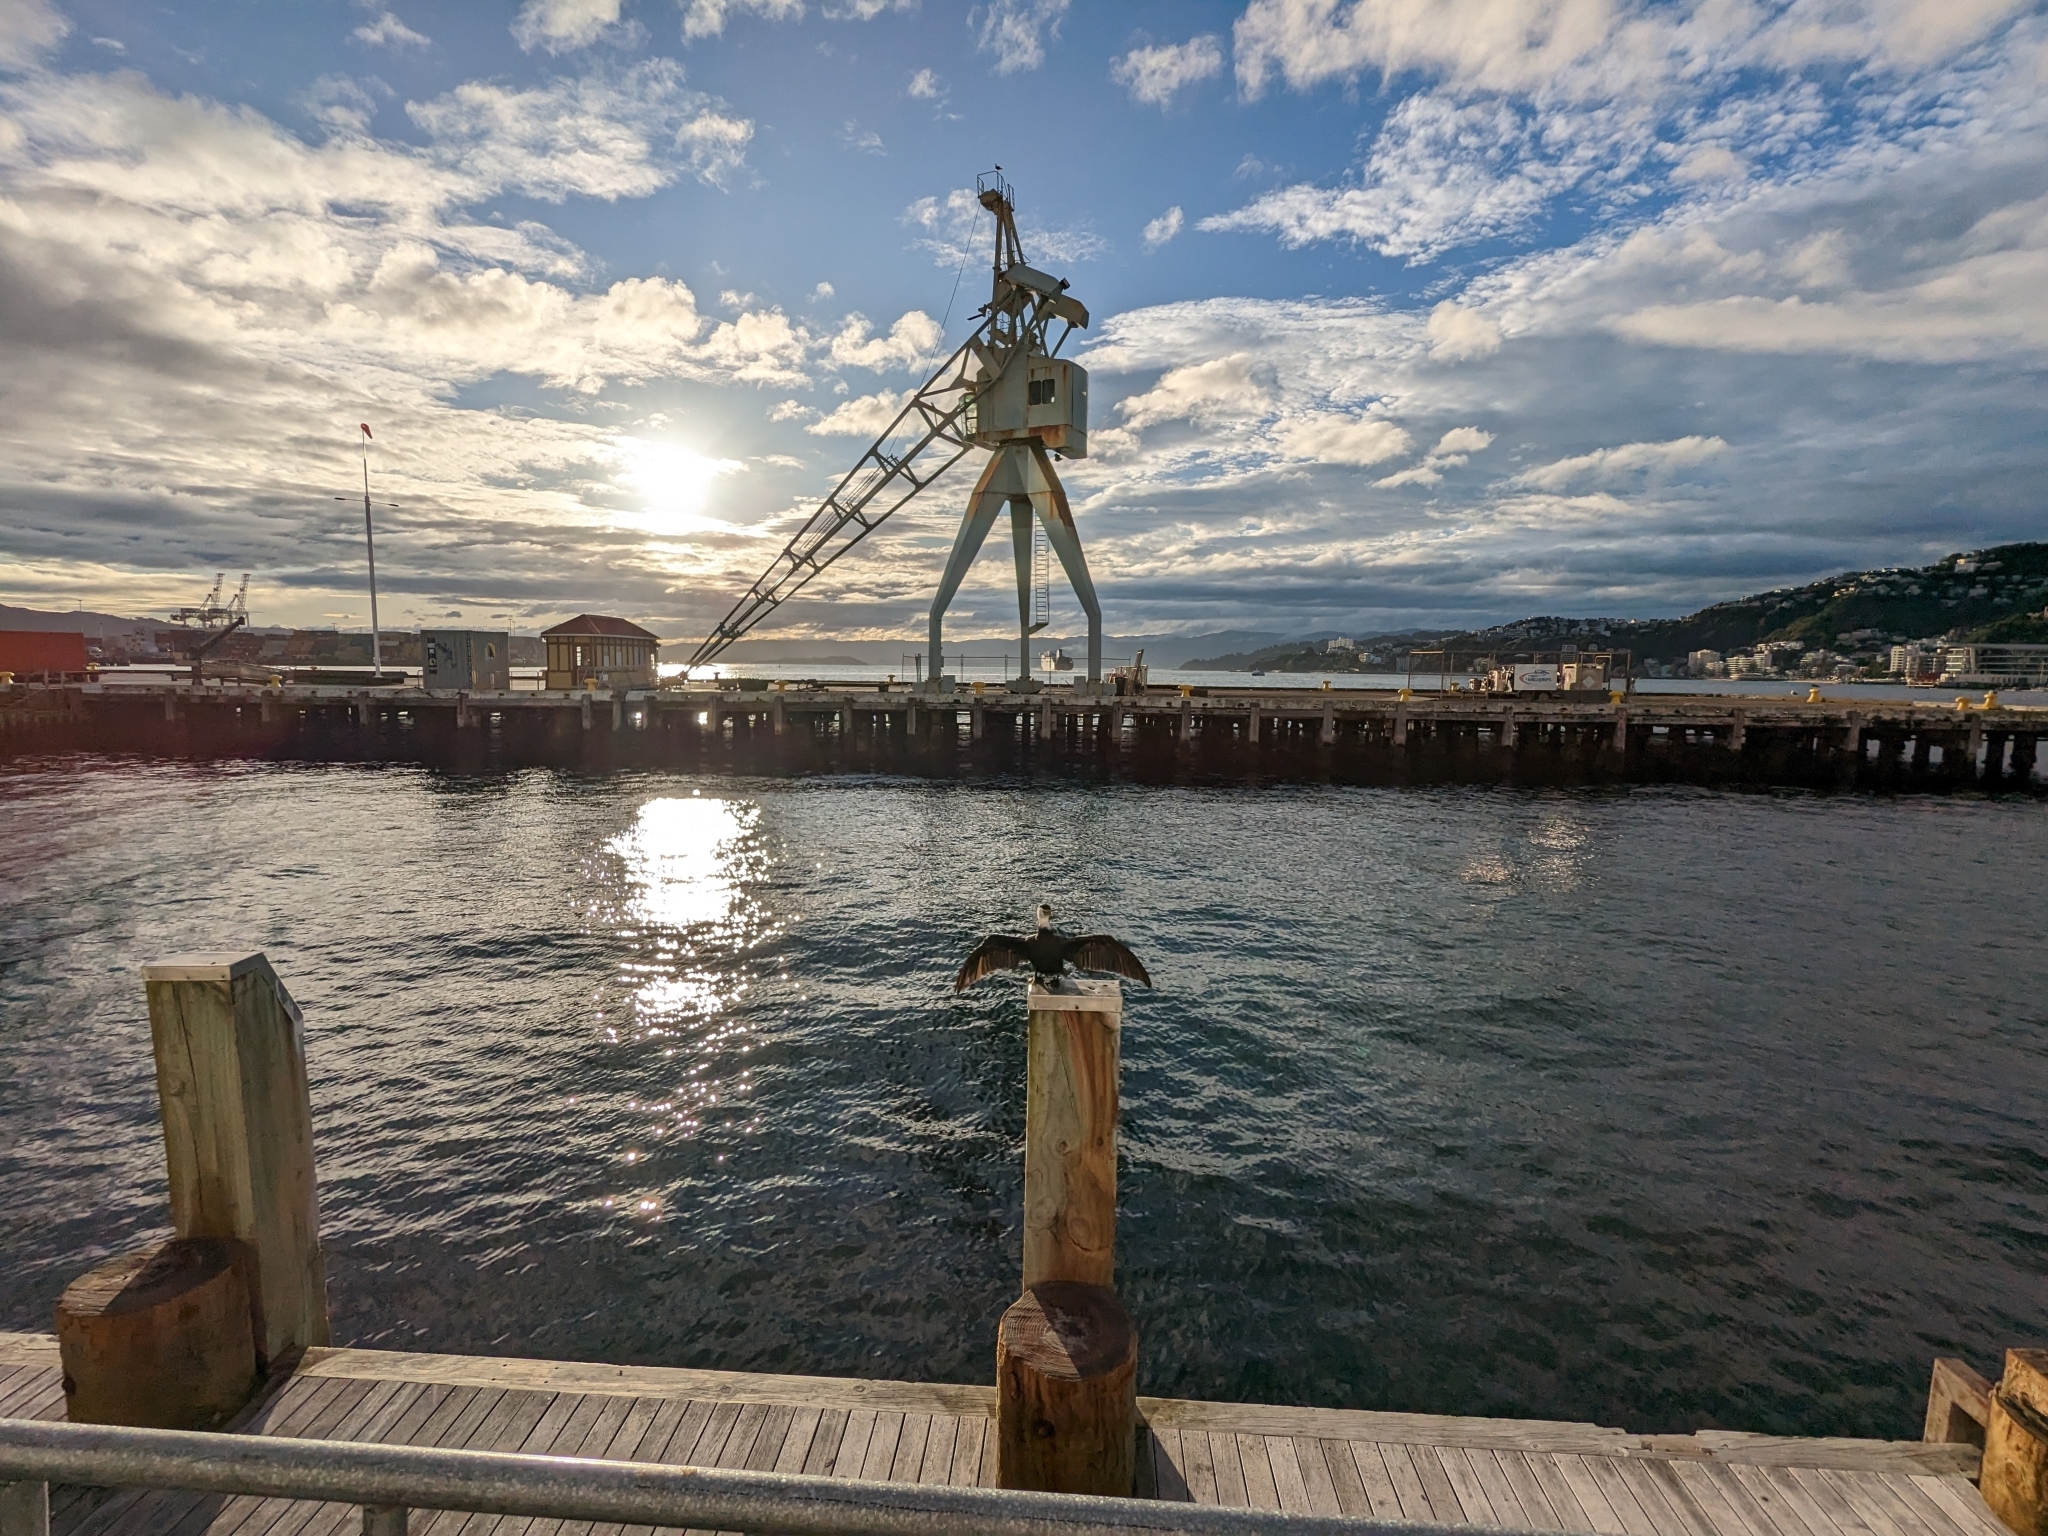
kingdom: Animalia
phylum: Chordata
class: Aves
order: Suliformes
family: Phalacrocoracidae
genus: Microcarbo
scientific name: Microcarbo melanoleucos
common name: Little pied cormorant
